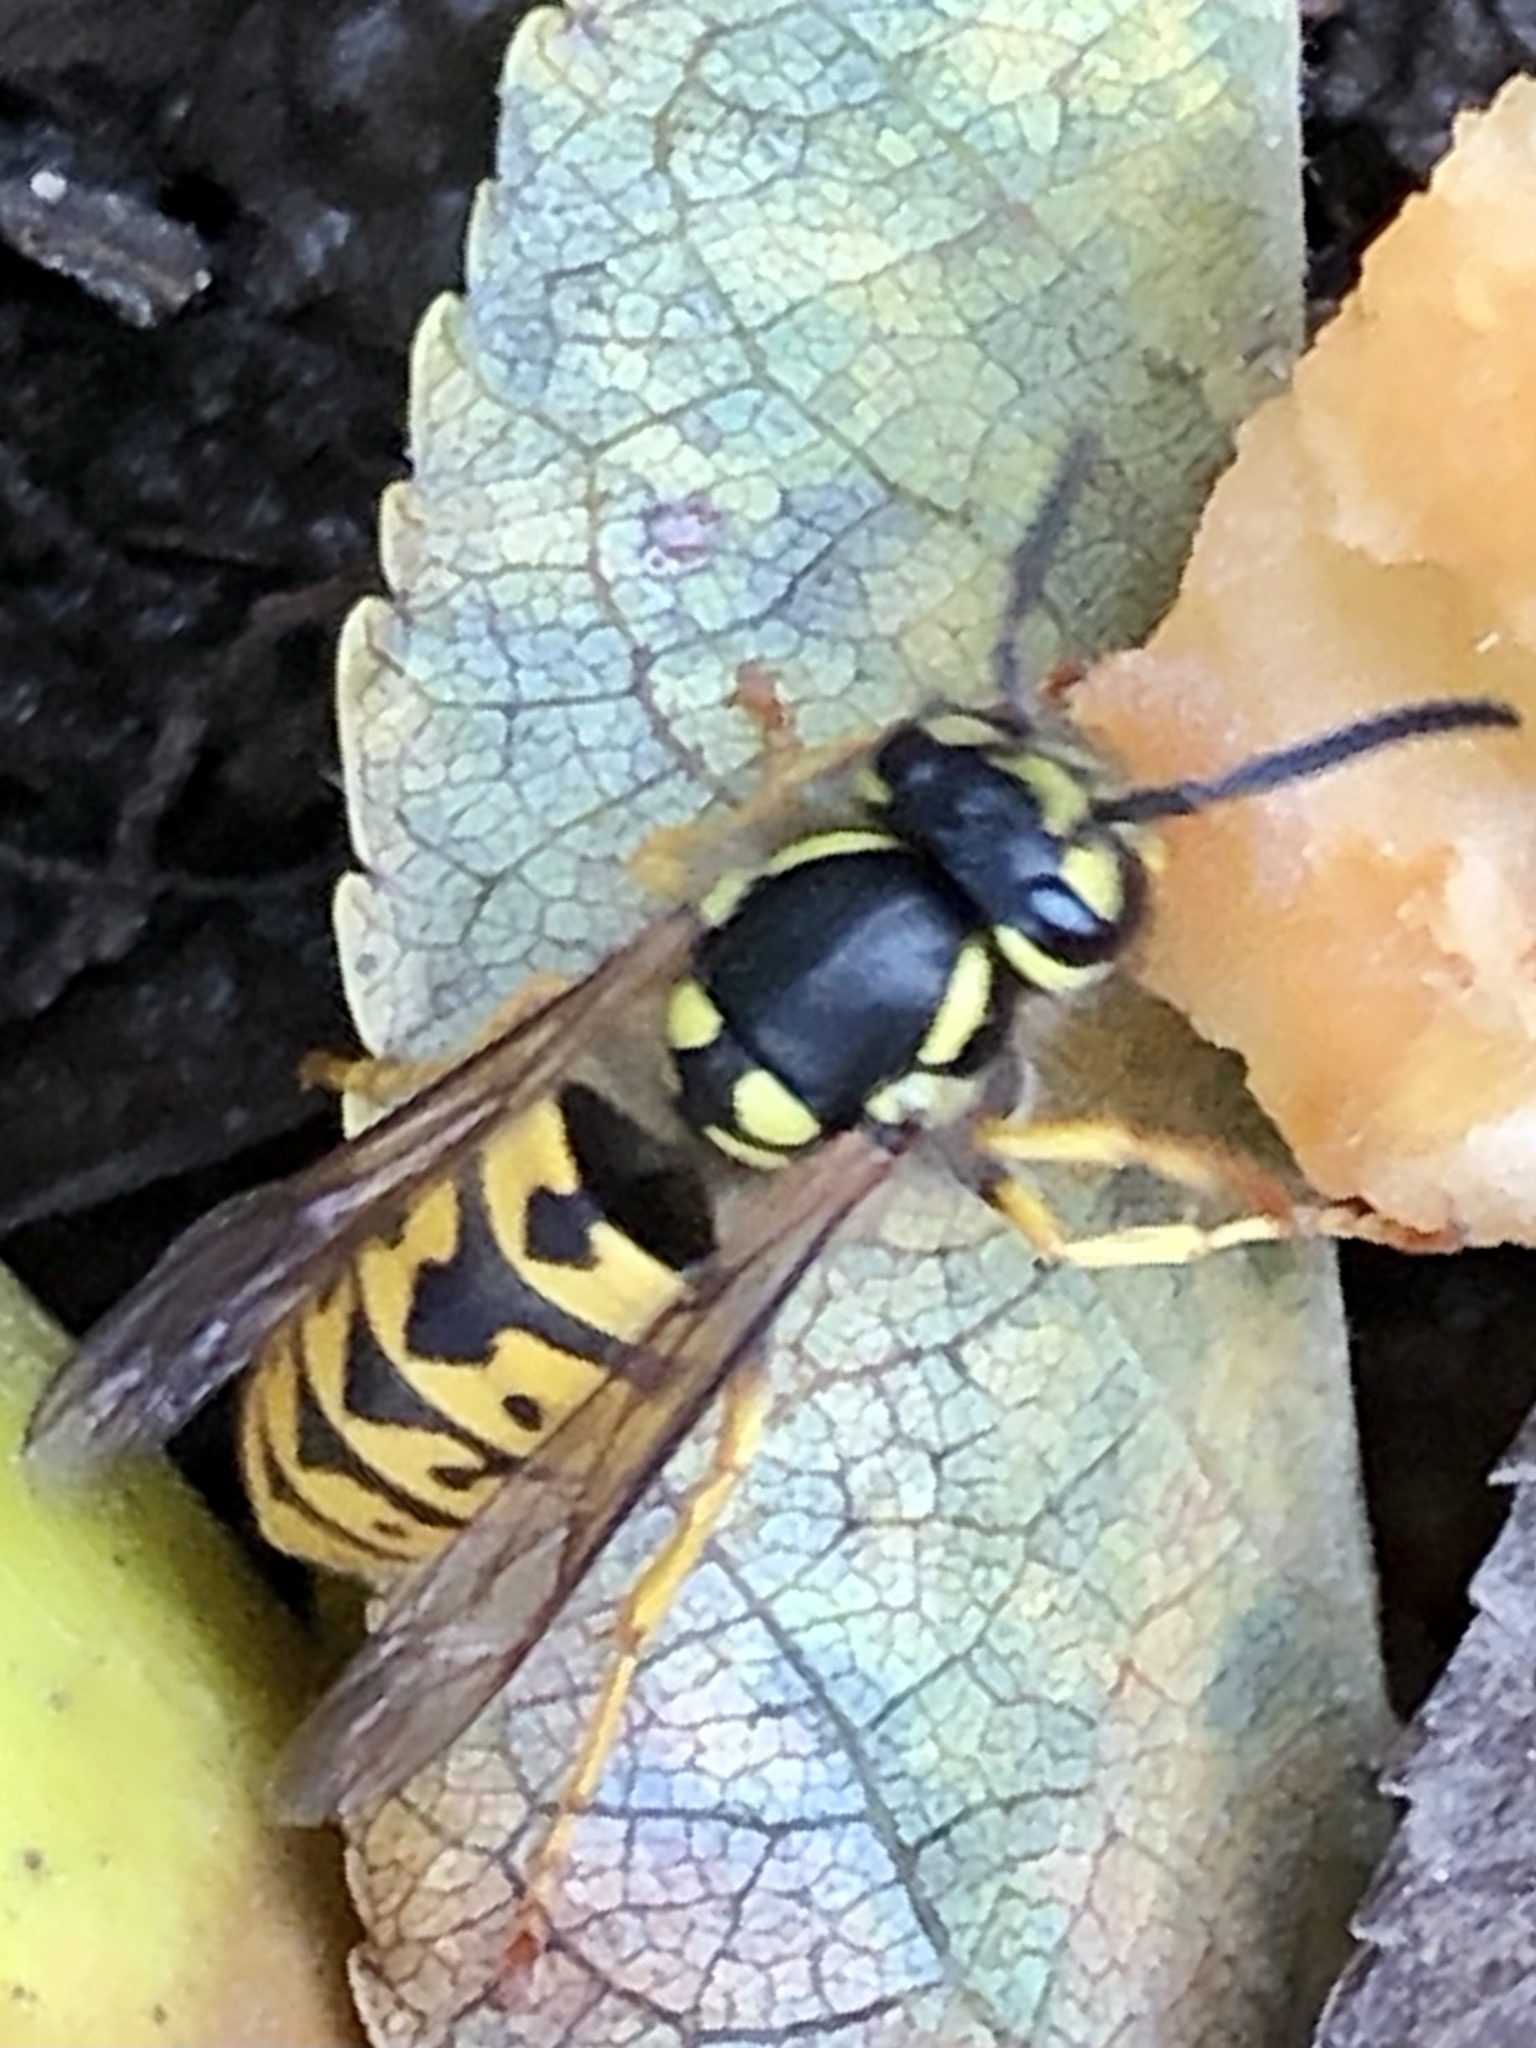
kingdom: Animalia
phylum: Arthropoda
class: Insecta
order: Hymenoptera
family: Vespidae
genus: Vespula
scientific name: Vespula germanica
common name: German wasp
